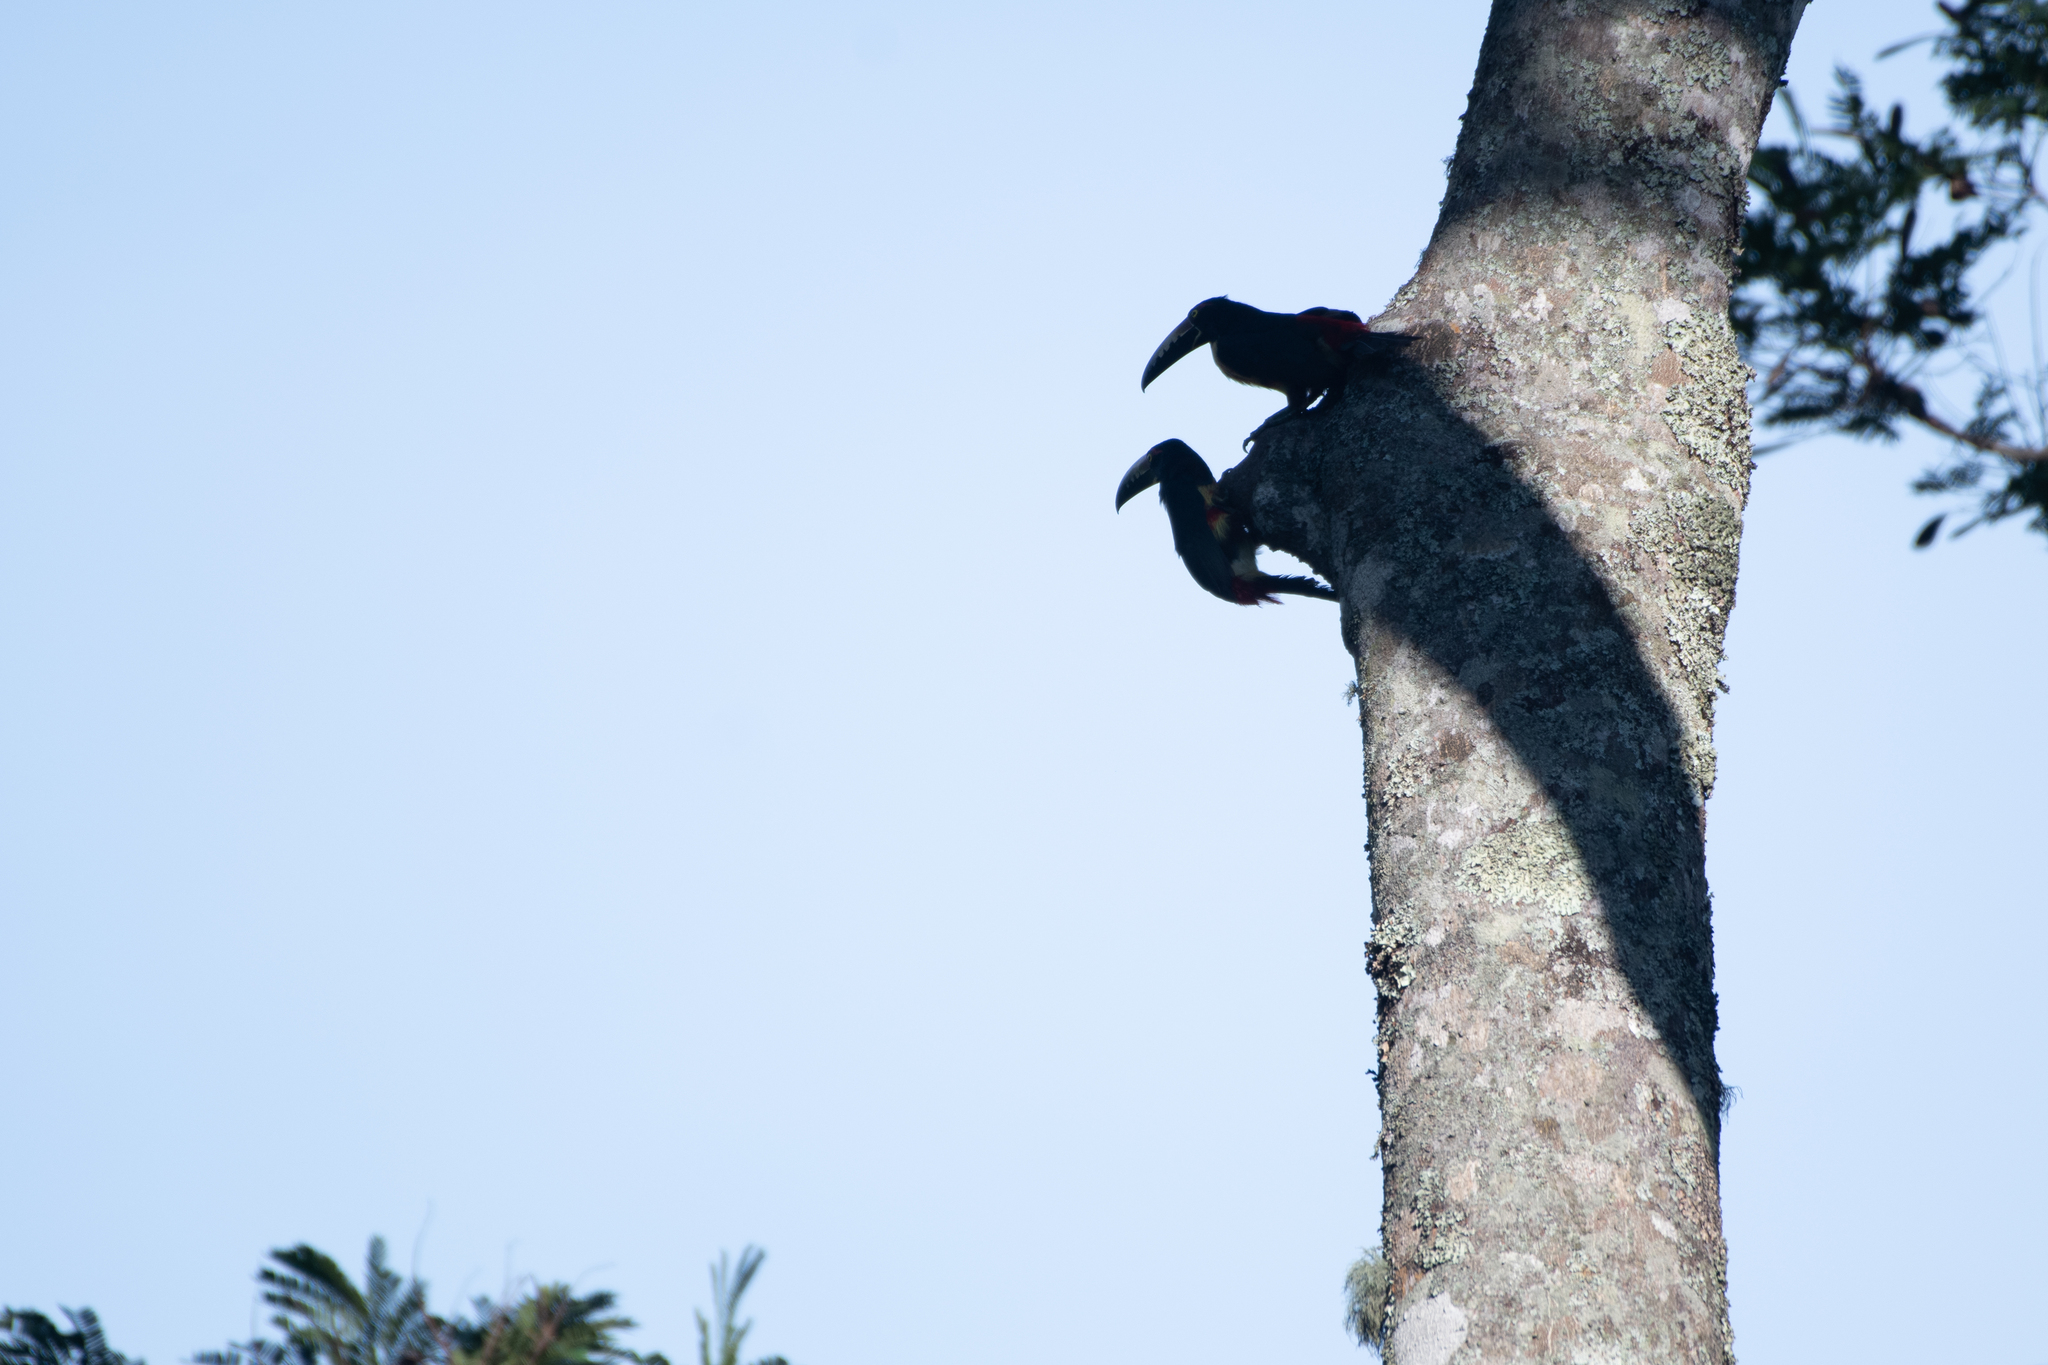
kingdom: Animalia
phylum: Chordata
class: Aves
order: Piciformes
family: Ramphastidae
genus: Pteroglossus
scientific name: Pteroglossus torquatus
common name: Collared aracari
